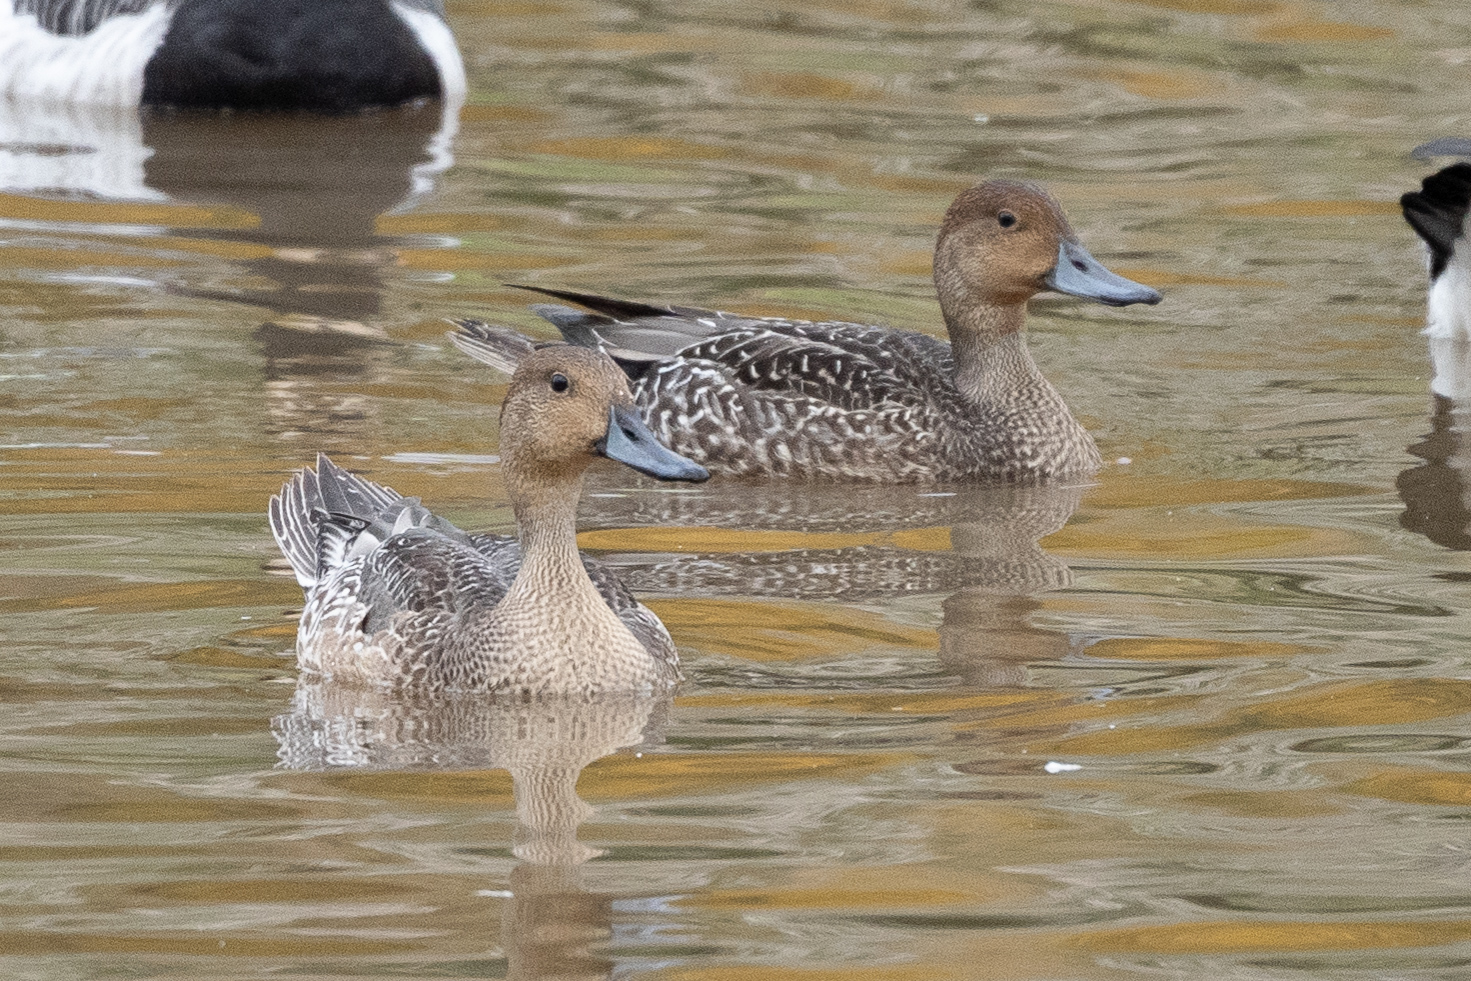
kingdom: Animalia
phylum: Chordata
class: Aves
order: Anseriformes
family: Anatidae
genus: Anas
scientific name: Anas acuta
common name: Northern pintail
